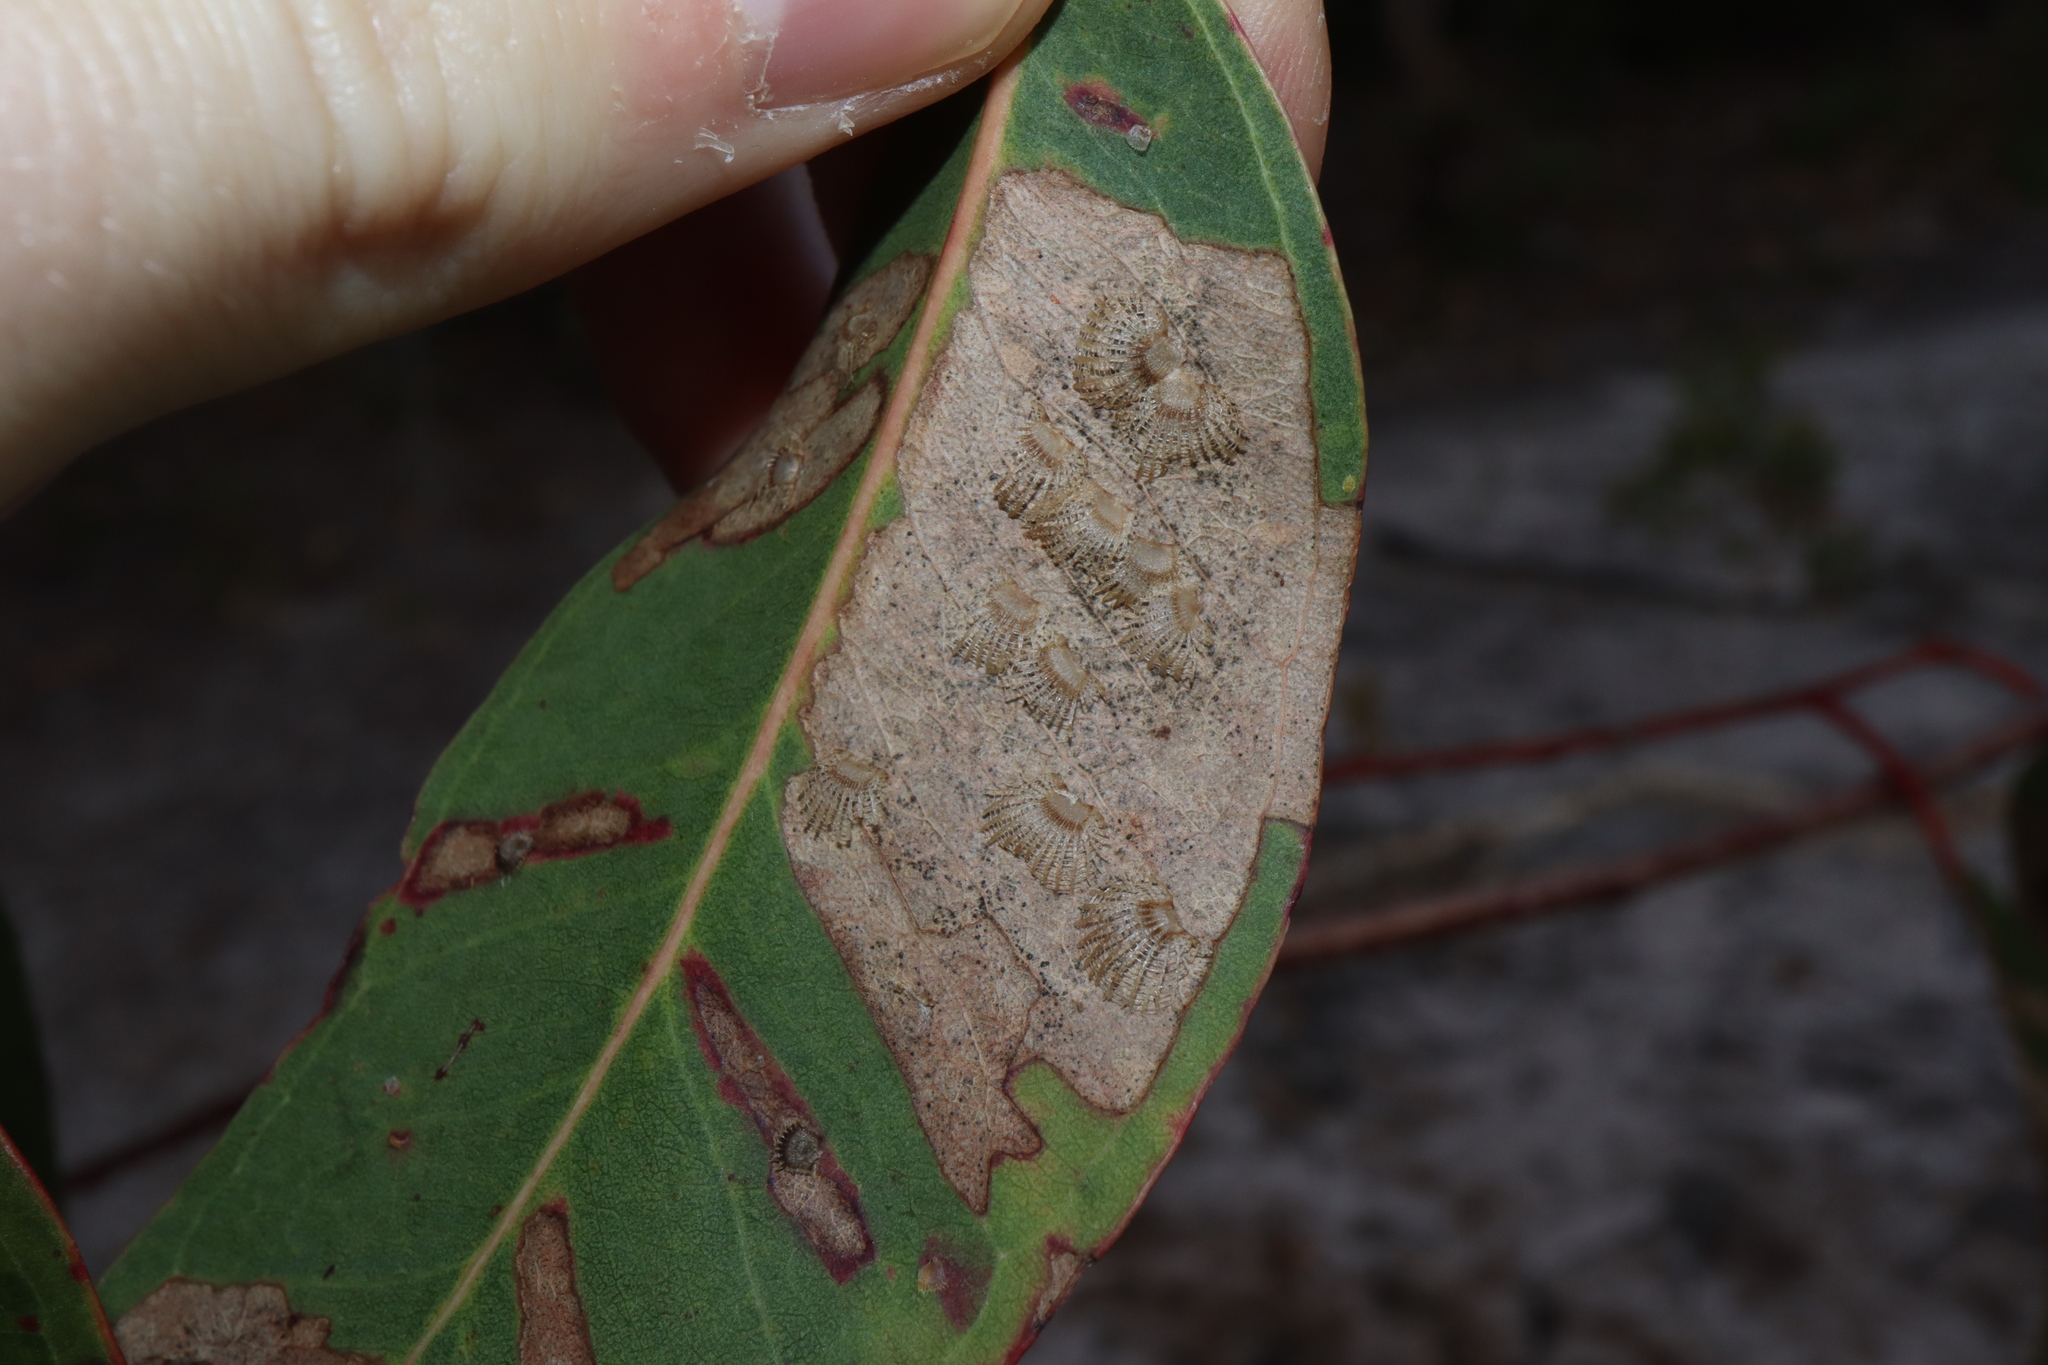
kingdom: Animalia
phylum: Arthropoda
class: Insecta
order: Hemiptera
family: Aphalaridae
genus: Cardiaspina
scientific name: Cardiaspina fiscella
